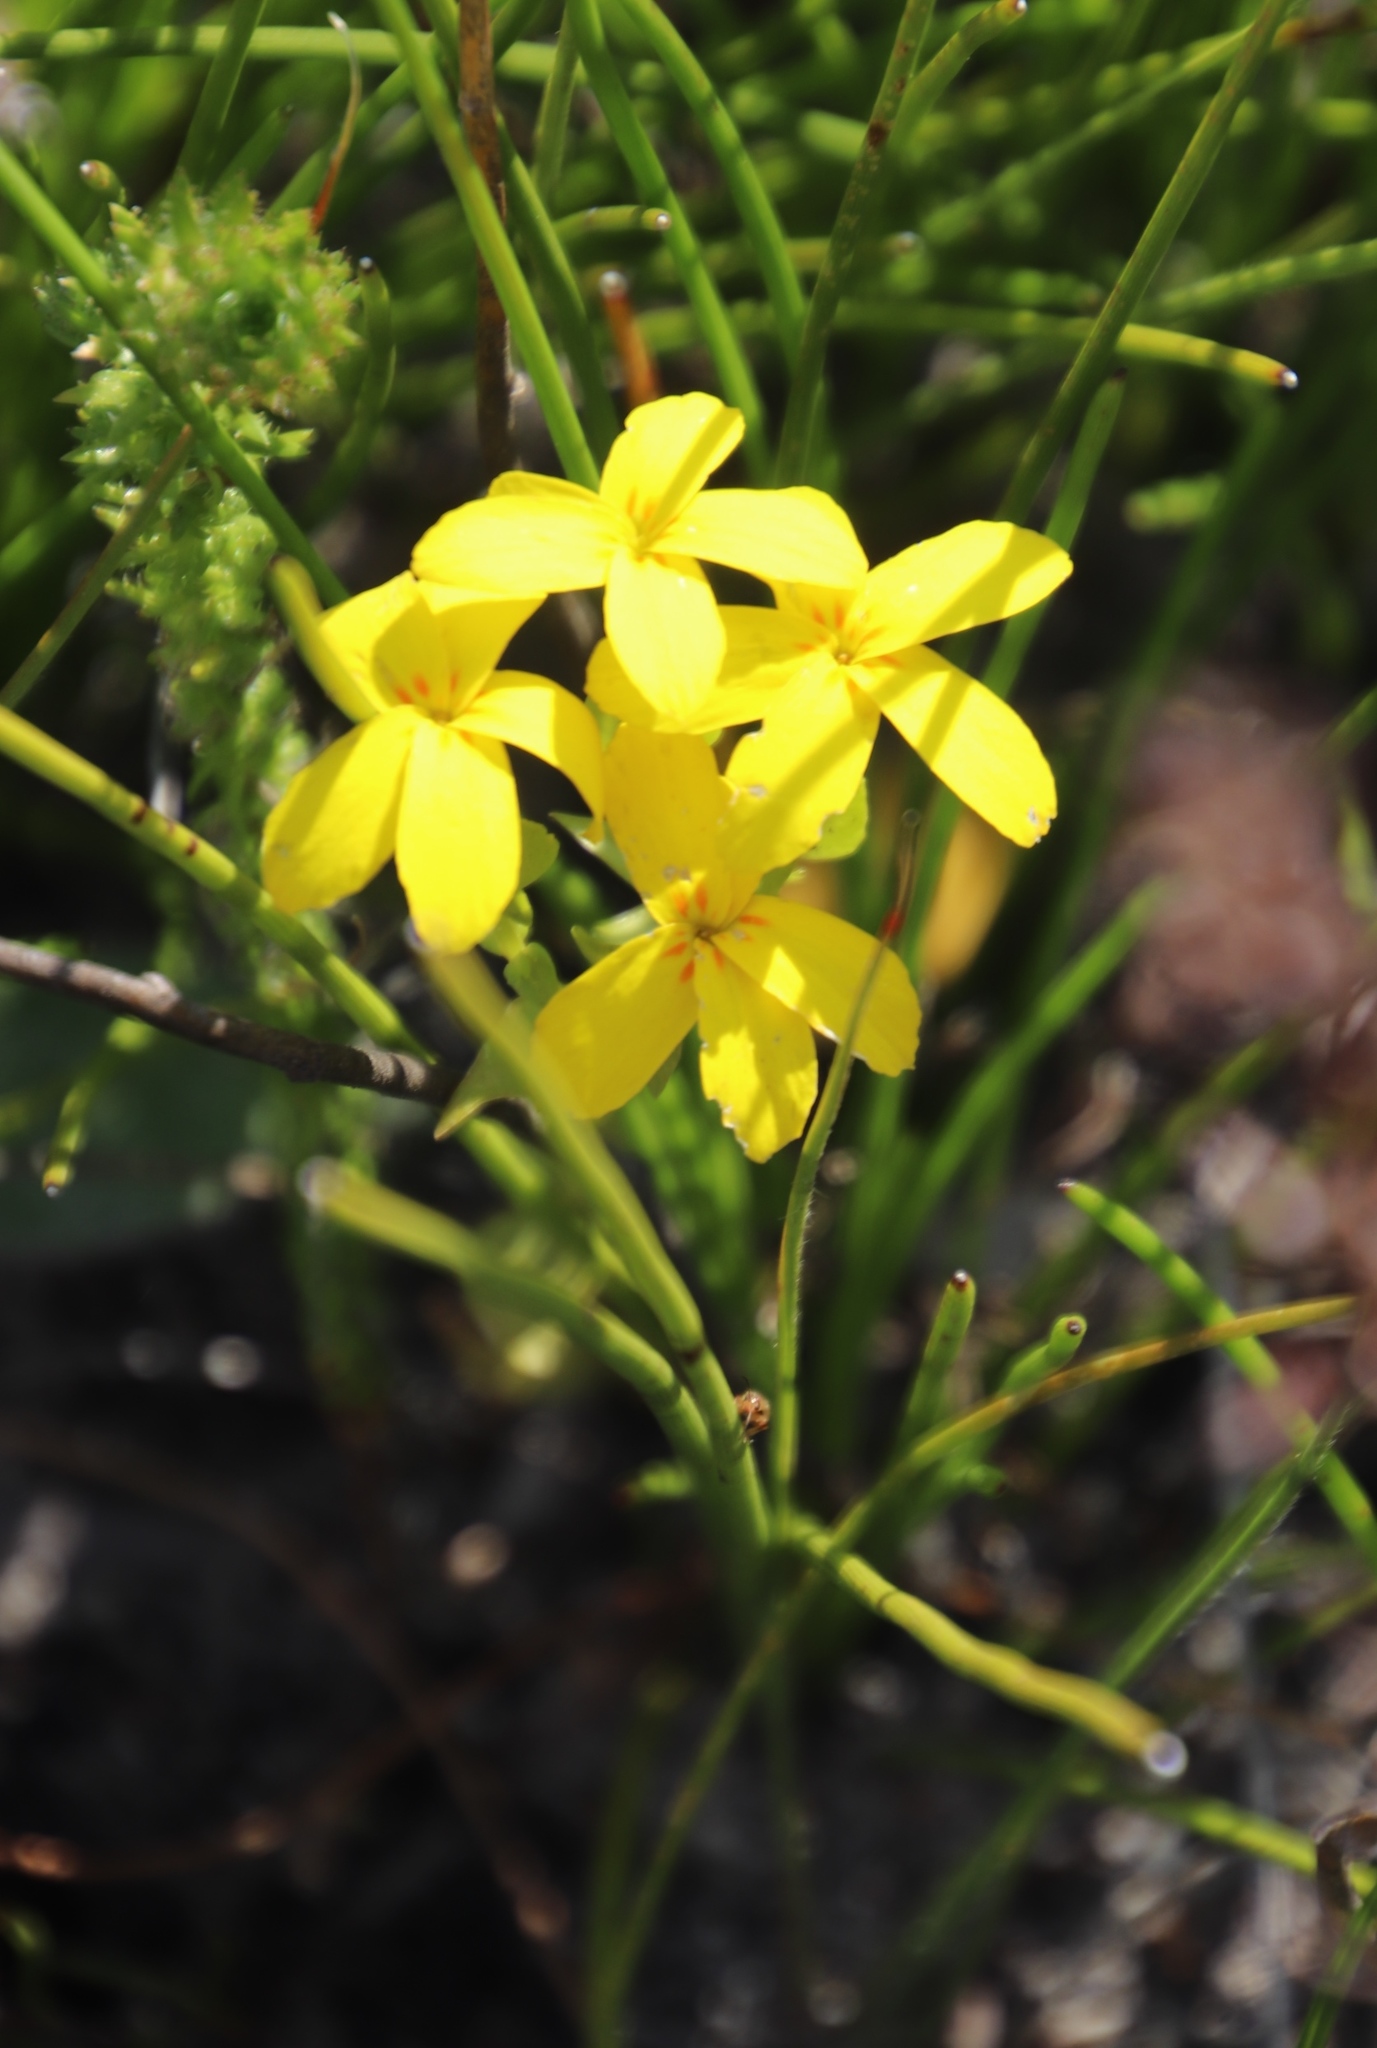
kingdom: Plantae
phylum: Tracheophyta
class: Magnoliopsida
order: Gentianales
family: Gentianaceae
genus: Sebaea
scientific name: Sebaea exacoides
